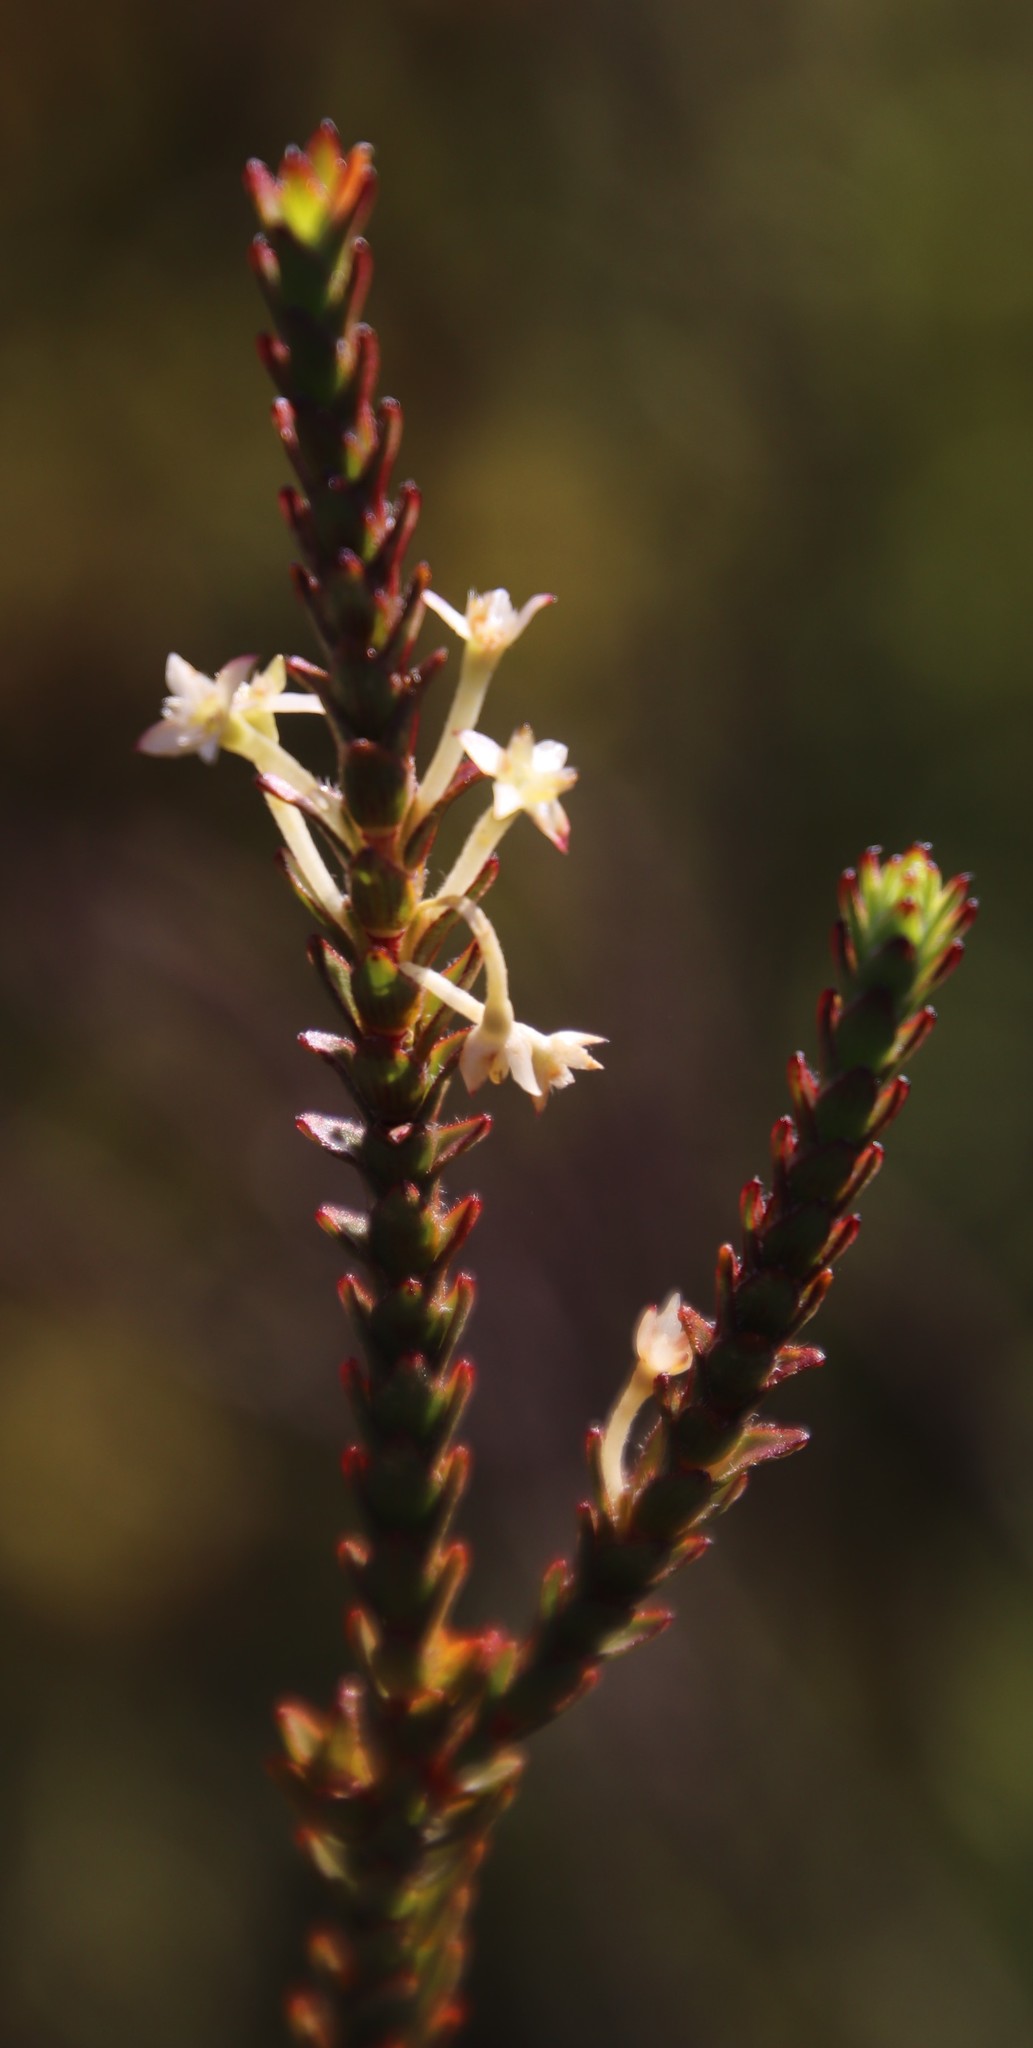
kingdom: Plantae
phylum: Tracheophyta
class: Magnoliopsida
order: Malvales
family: Thymelaeaceae
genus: Struthiola
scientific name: Struthiola striata
